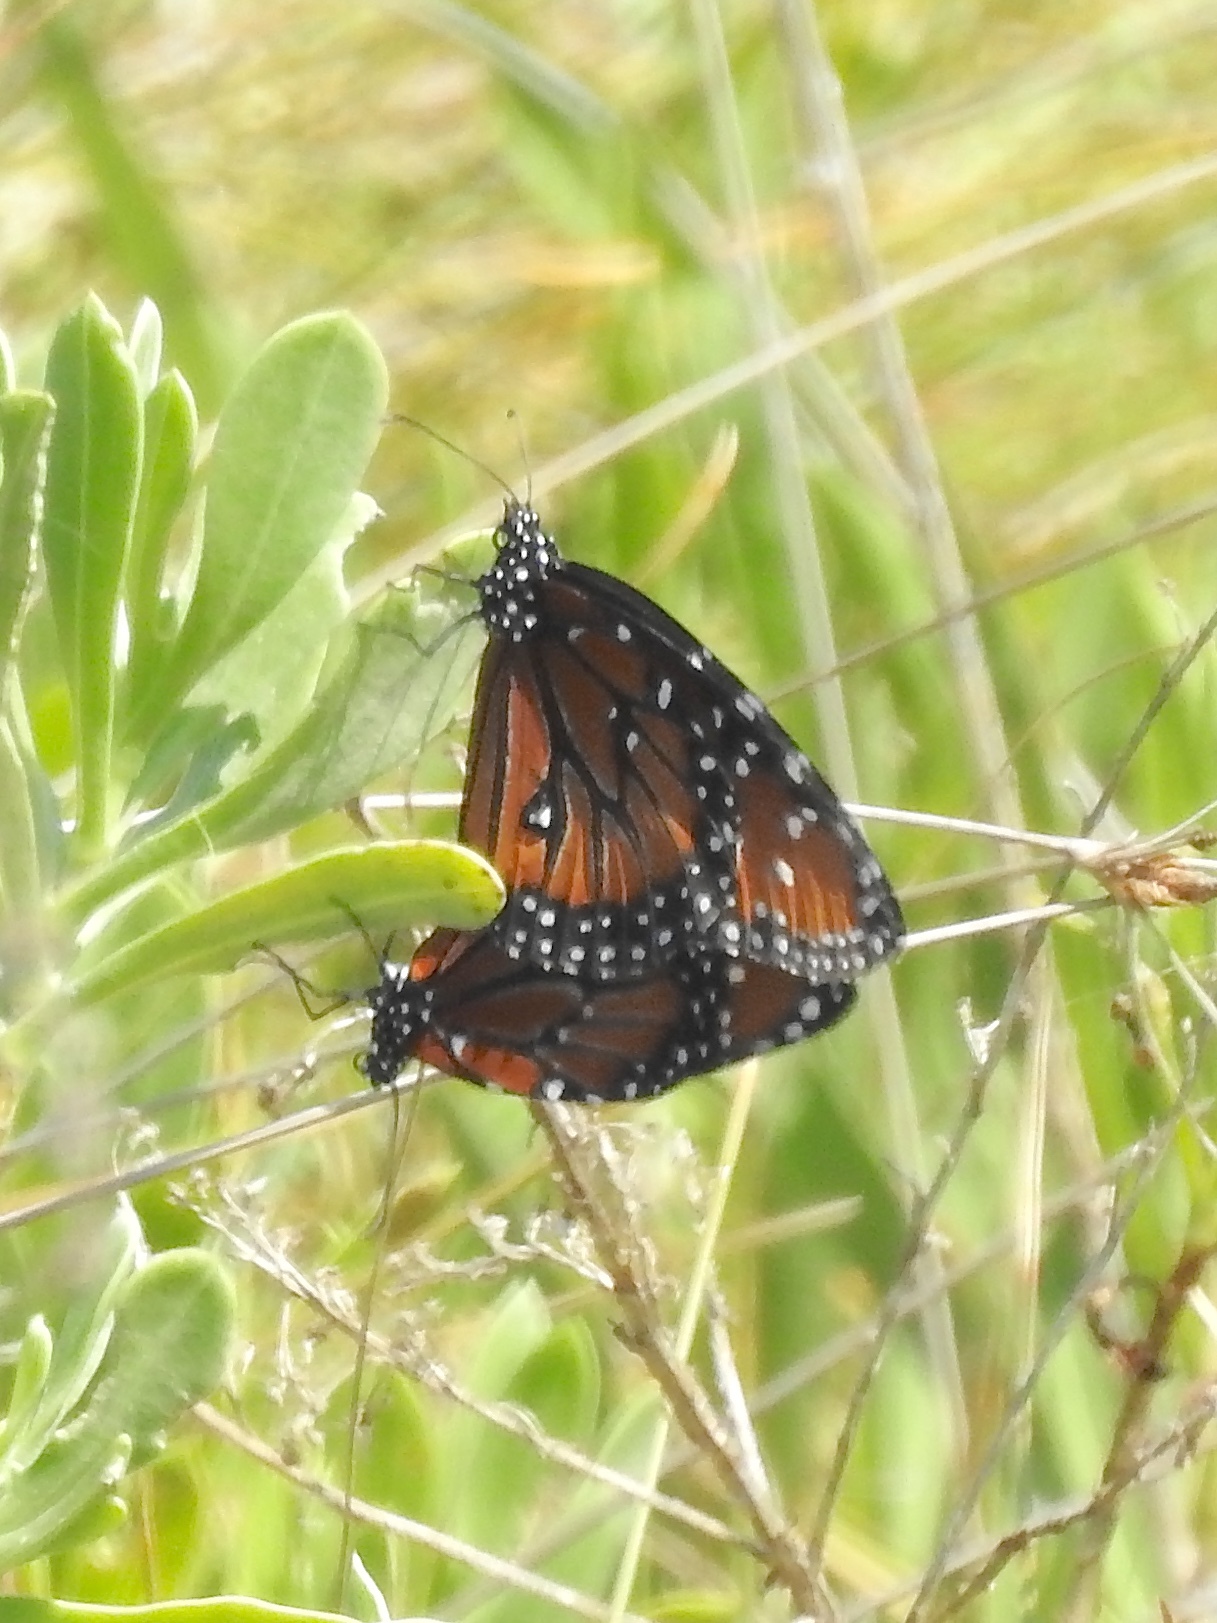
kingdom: Animalia
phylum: Arthropoda
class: Insecta
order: Lepidoptera
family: Nymphalidae
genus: Danaus
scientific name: Danaus gilippus
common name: Queen
